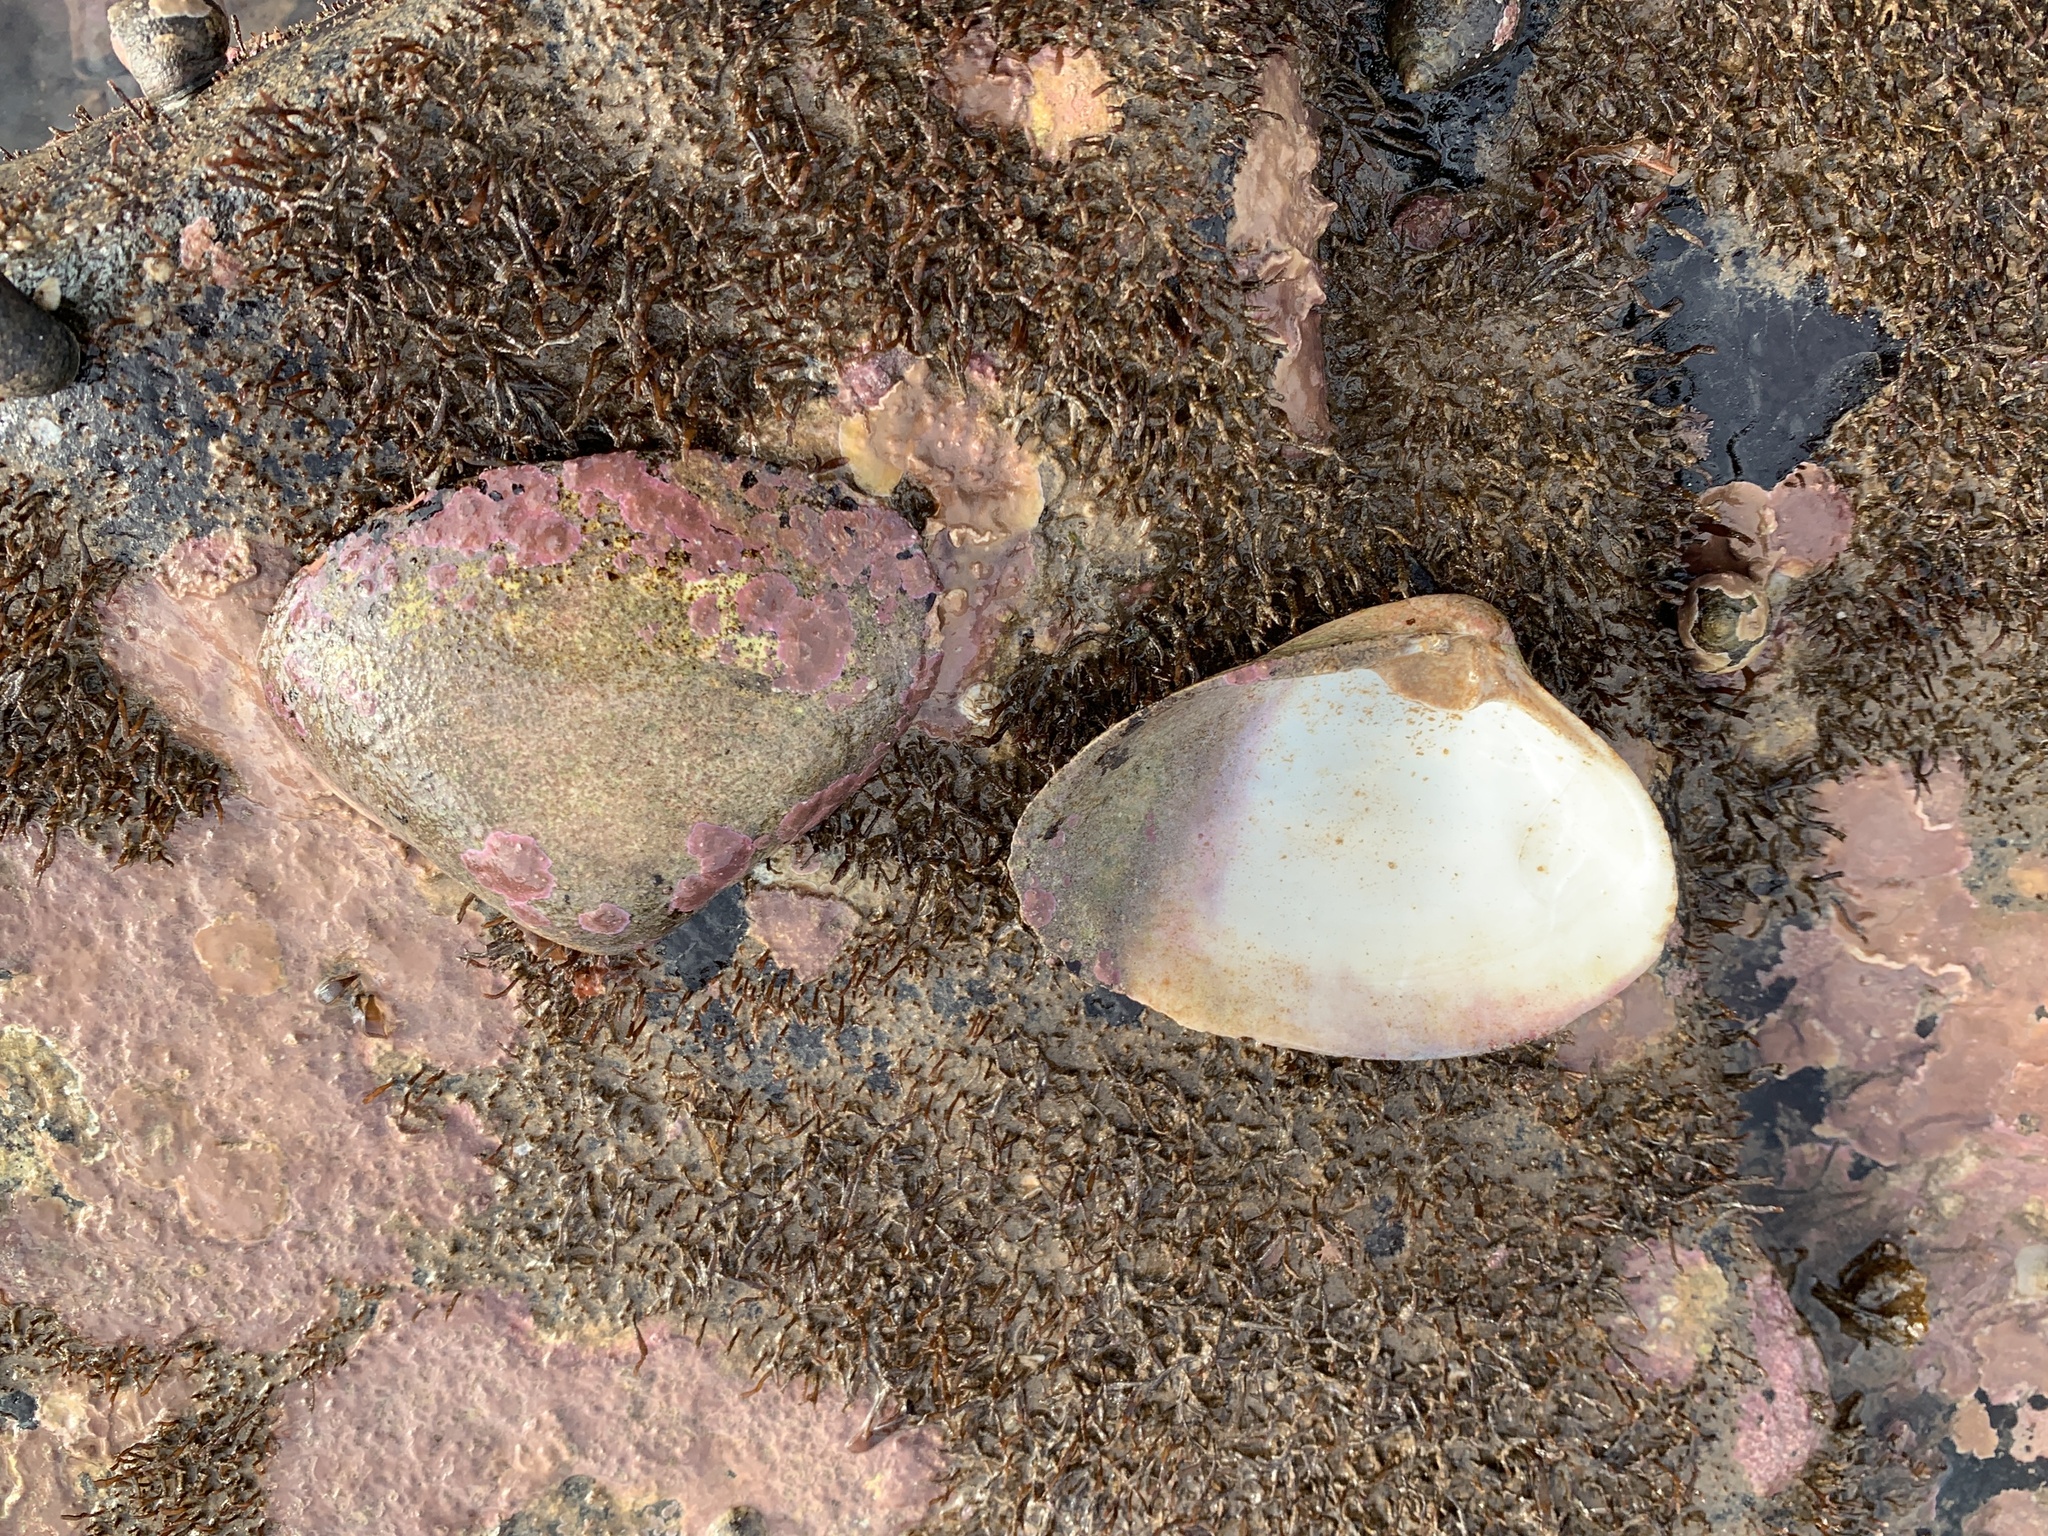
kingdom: Animalia
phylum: Mollusca
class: Bivalvia
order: Venerida
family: Mactridae
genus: Spisula
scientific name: Spisula solidissima
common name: Atlantic surf clam
